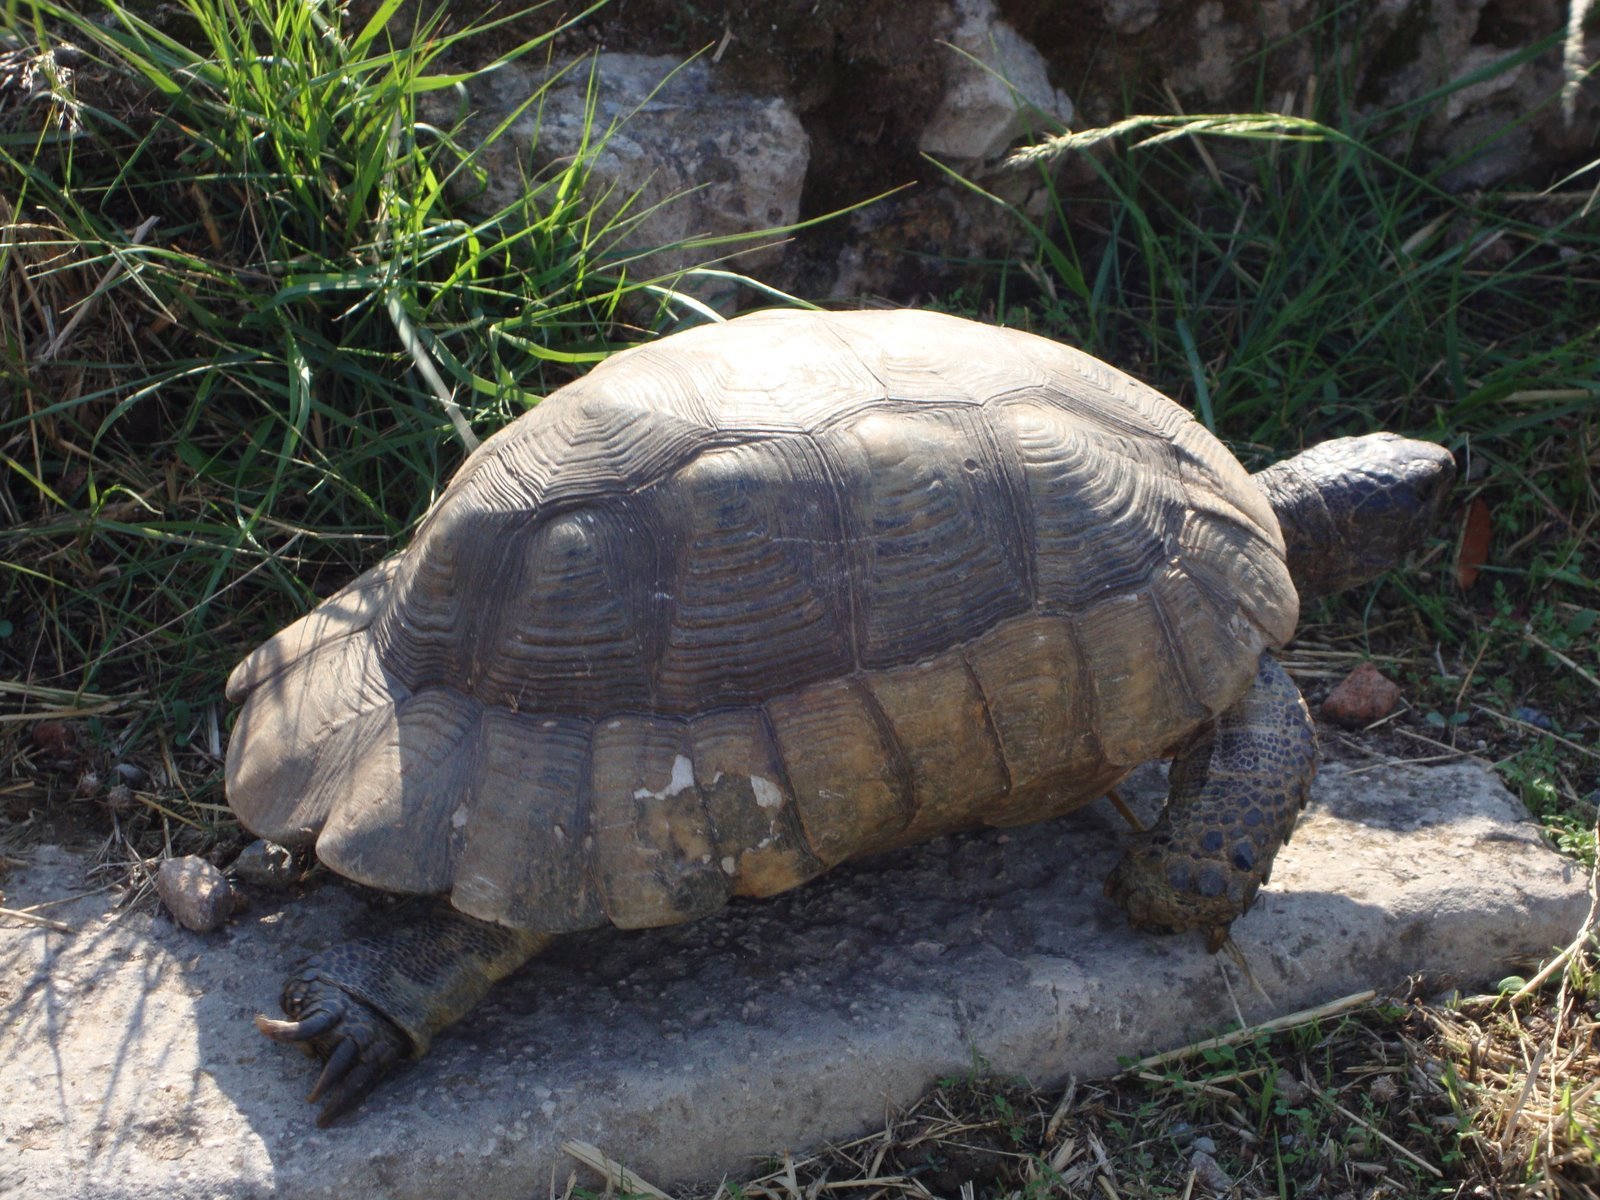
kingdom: Animalia
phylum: Chordata
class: Testudines
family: Testudinidae
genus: Testudo
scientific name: Testudo marginata
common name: Marginated tortoise
